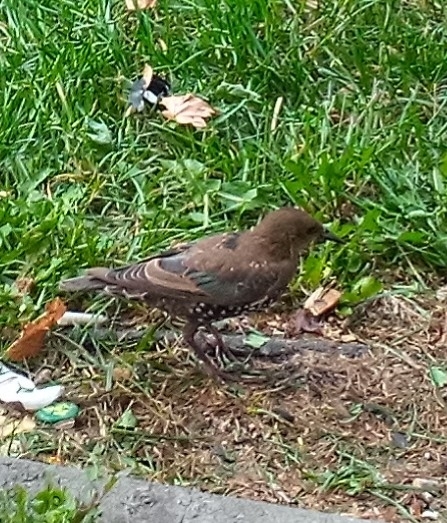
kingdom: Animalia
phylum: Chordata
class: Aves
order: Passeriformes
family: Sturnidae
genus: Sturnus
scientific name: Sturnus vulgaris
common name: Common starling
